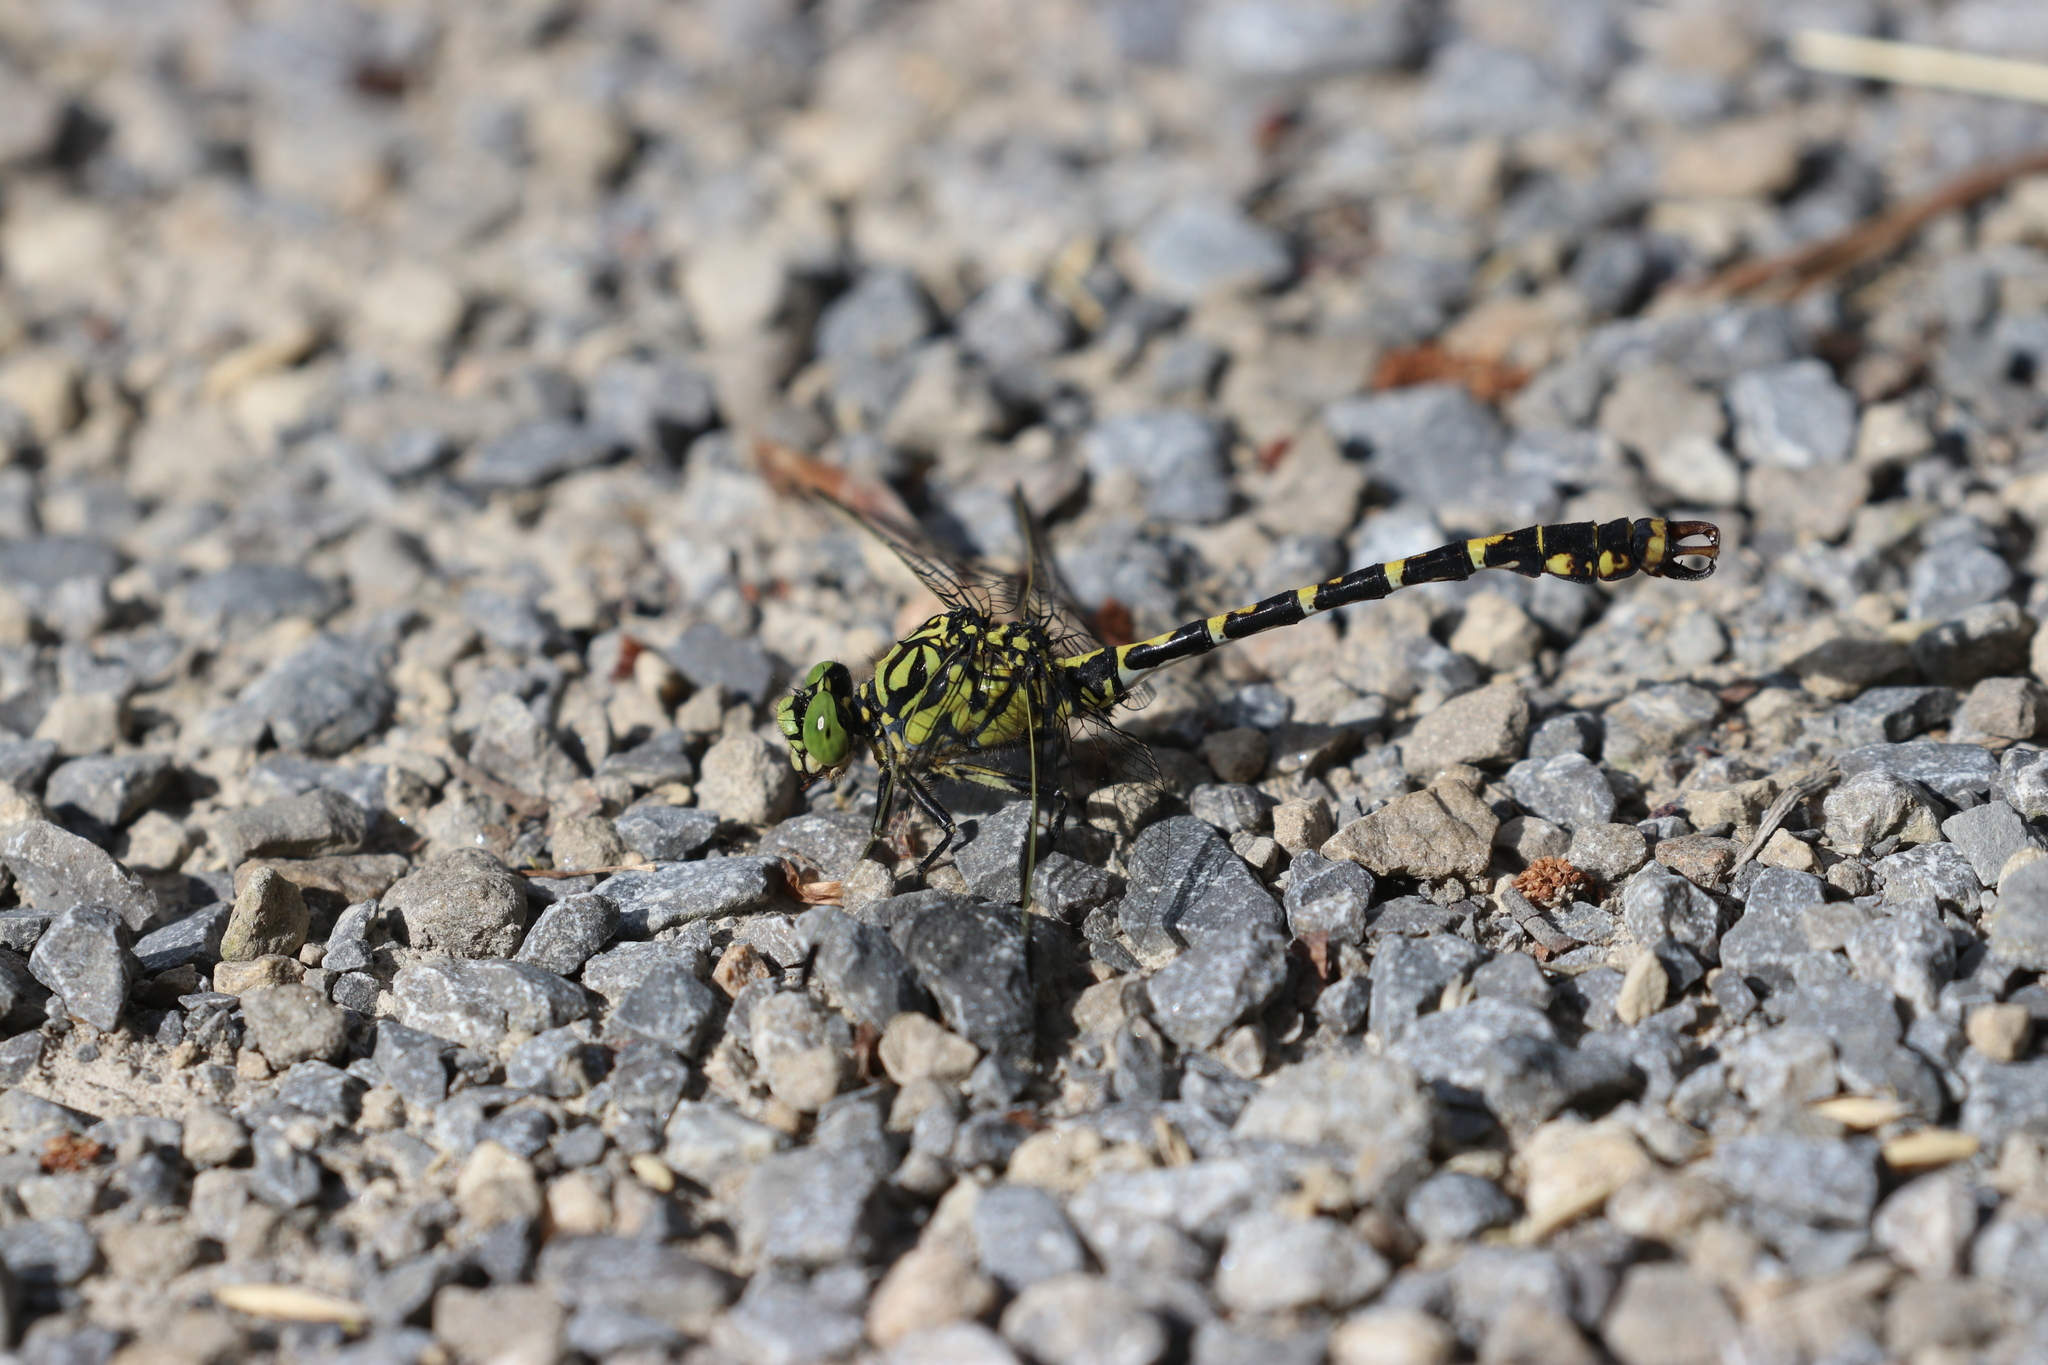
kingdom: Animalia
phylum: Arthropoda
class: Insecta
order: Odonata
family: Gomphidae
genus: Onychogomphus
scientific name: Onychogomphus forcipatus
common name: Small pincertail
